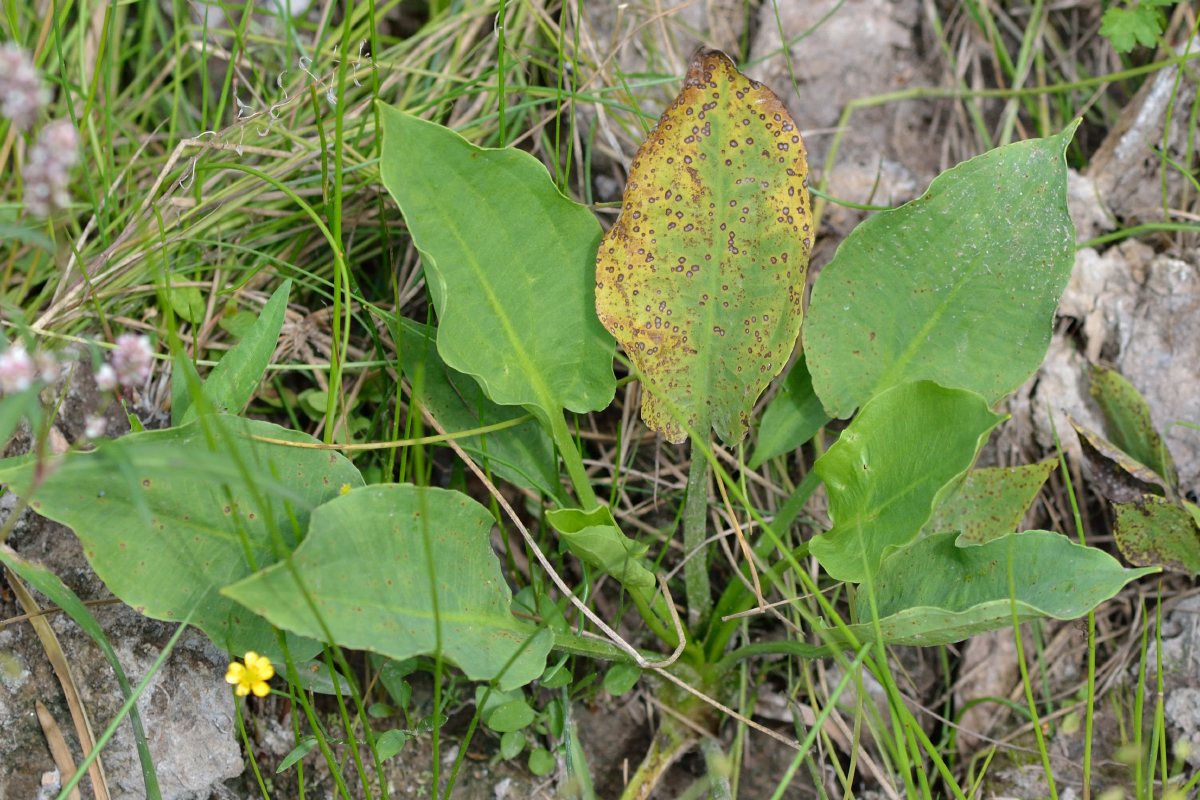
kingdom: Plantae
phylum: Tracheophyta
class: Liliopsida
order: Alismatales
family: Alismataceae
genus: Alisma
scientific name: Alisma plantago-aquatica
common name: Water-plantain
